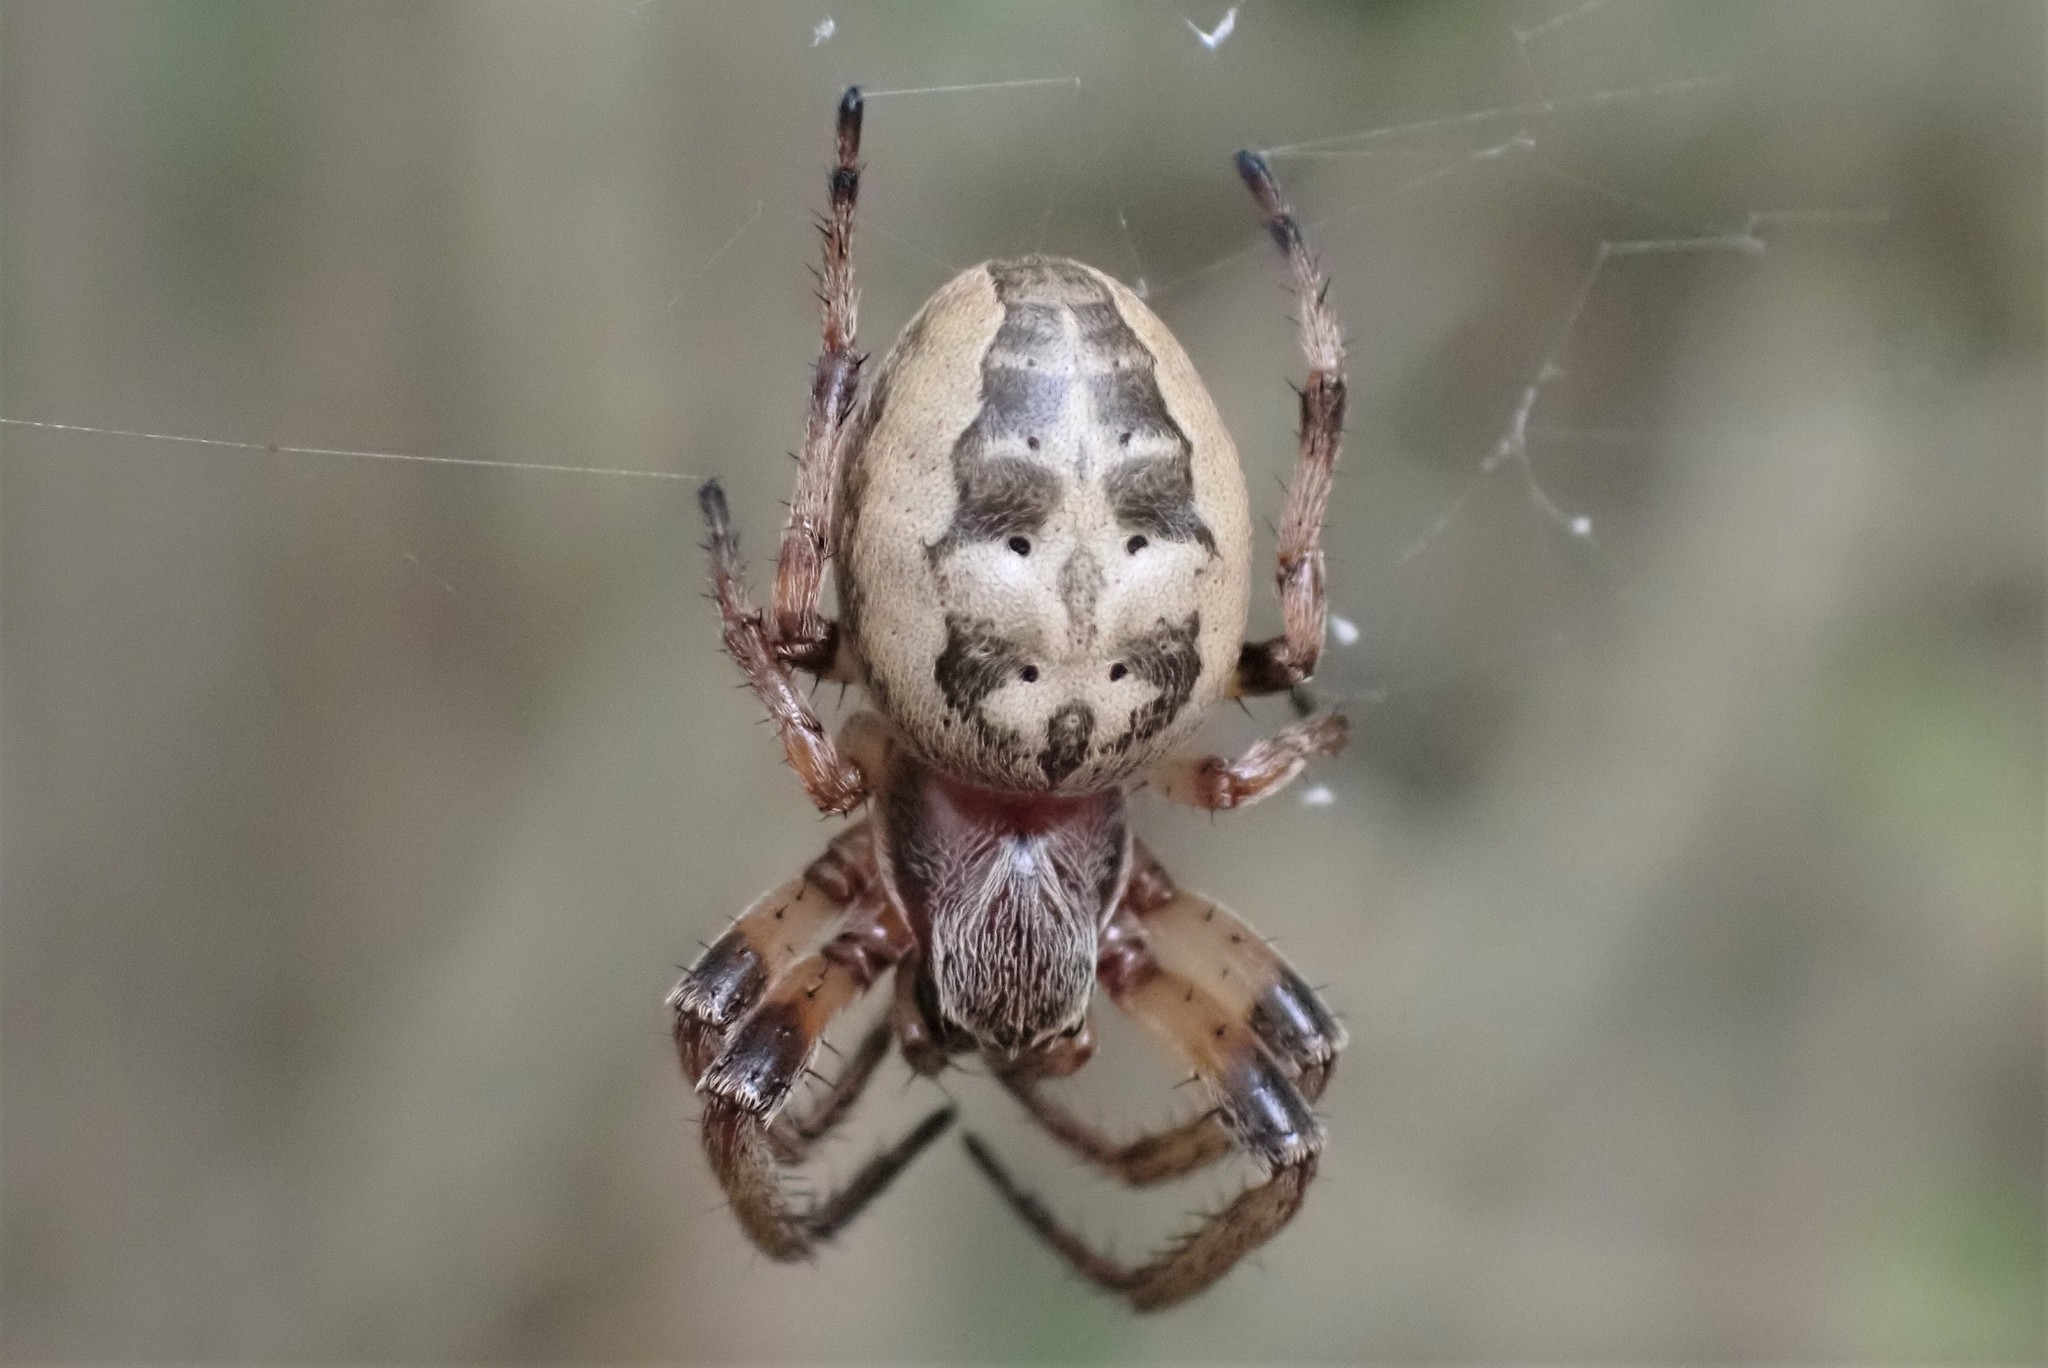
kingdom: Animalia
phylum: Arthropoda
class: Arachnida
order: Araneae
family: Araneidae
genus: Larinioides
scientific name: Larinioides cornutus
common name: Furrow orbweaver
